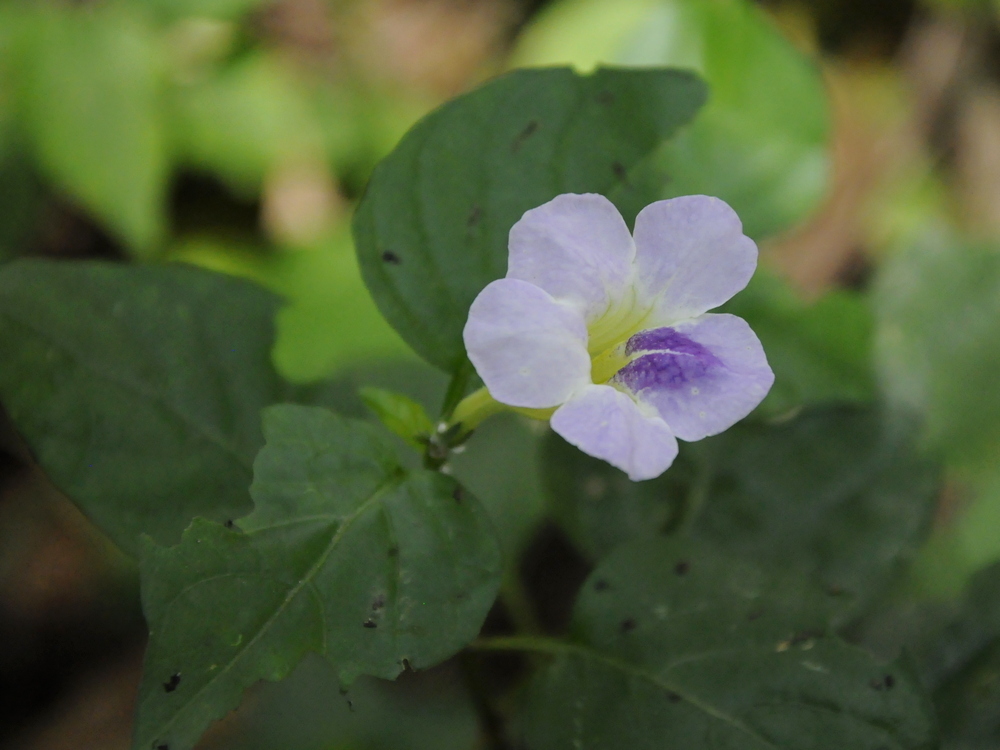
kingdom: Plantae
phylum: Tracheophyta
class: Magnoliopsida
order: Lamiales
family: Acanthaceae
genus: Asystasia
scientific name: Asystasia gangetica
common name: Chinese violet
